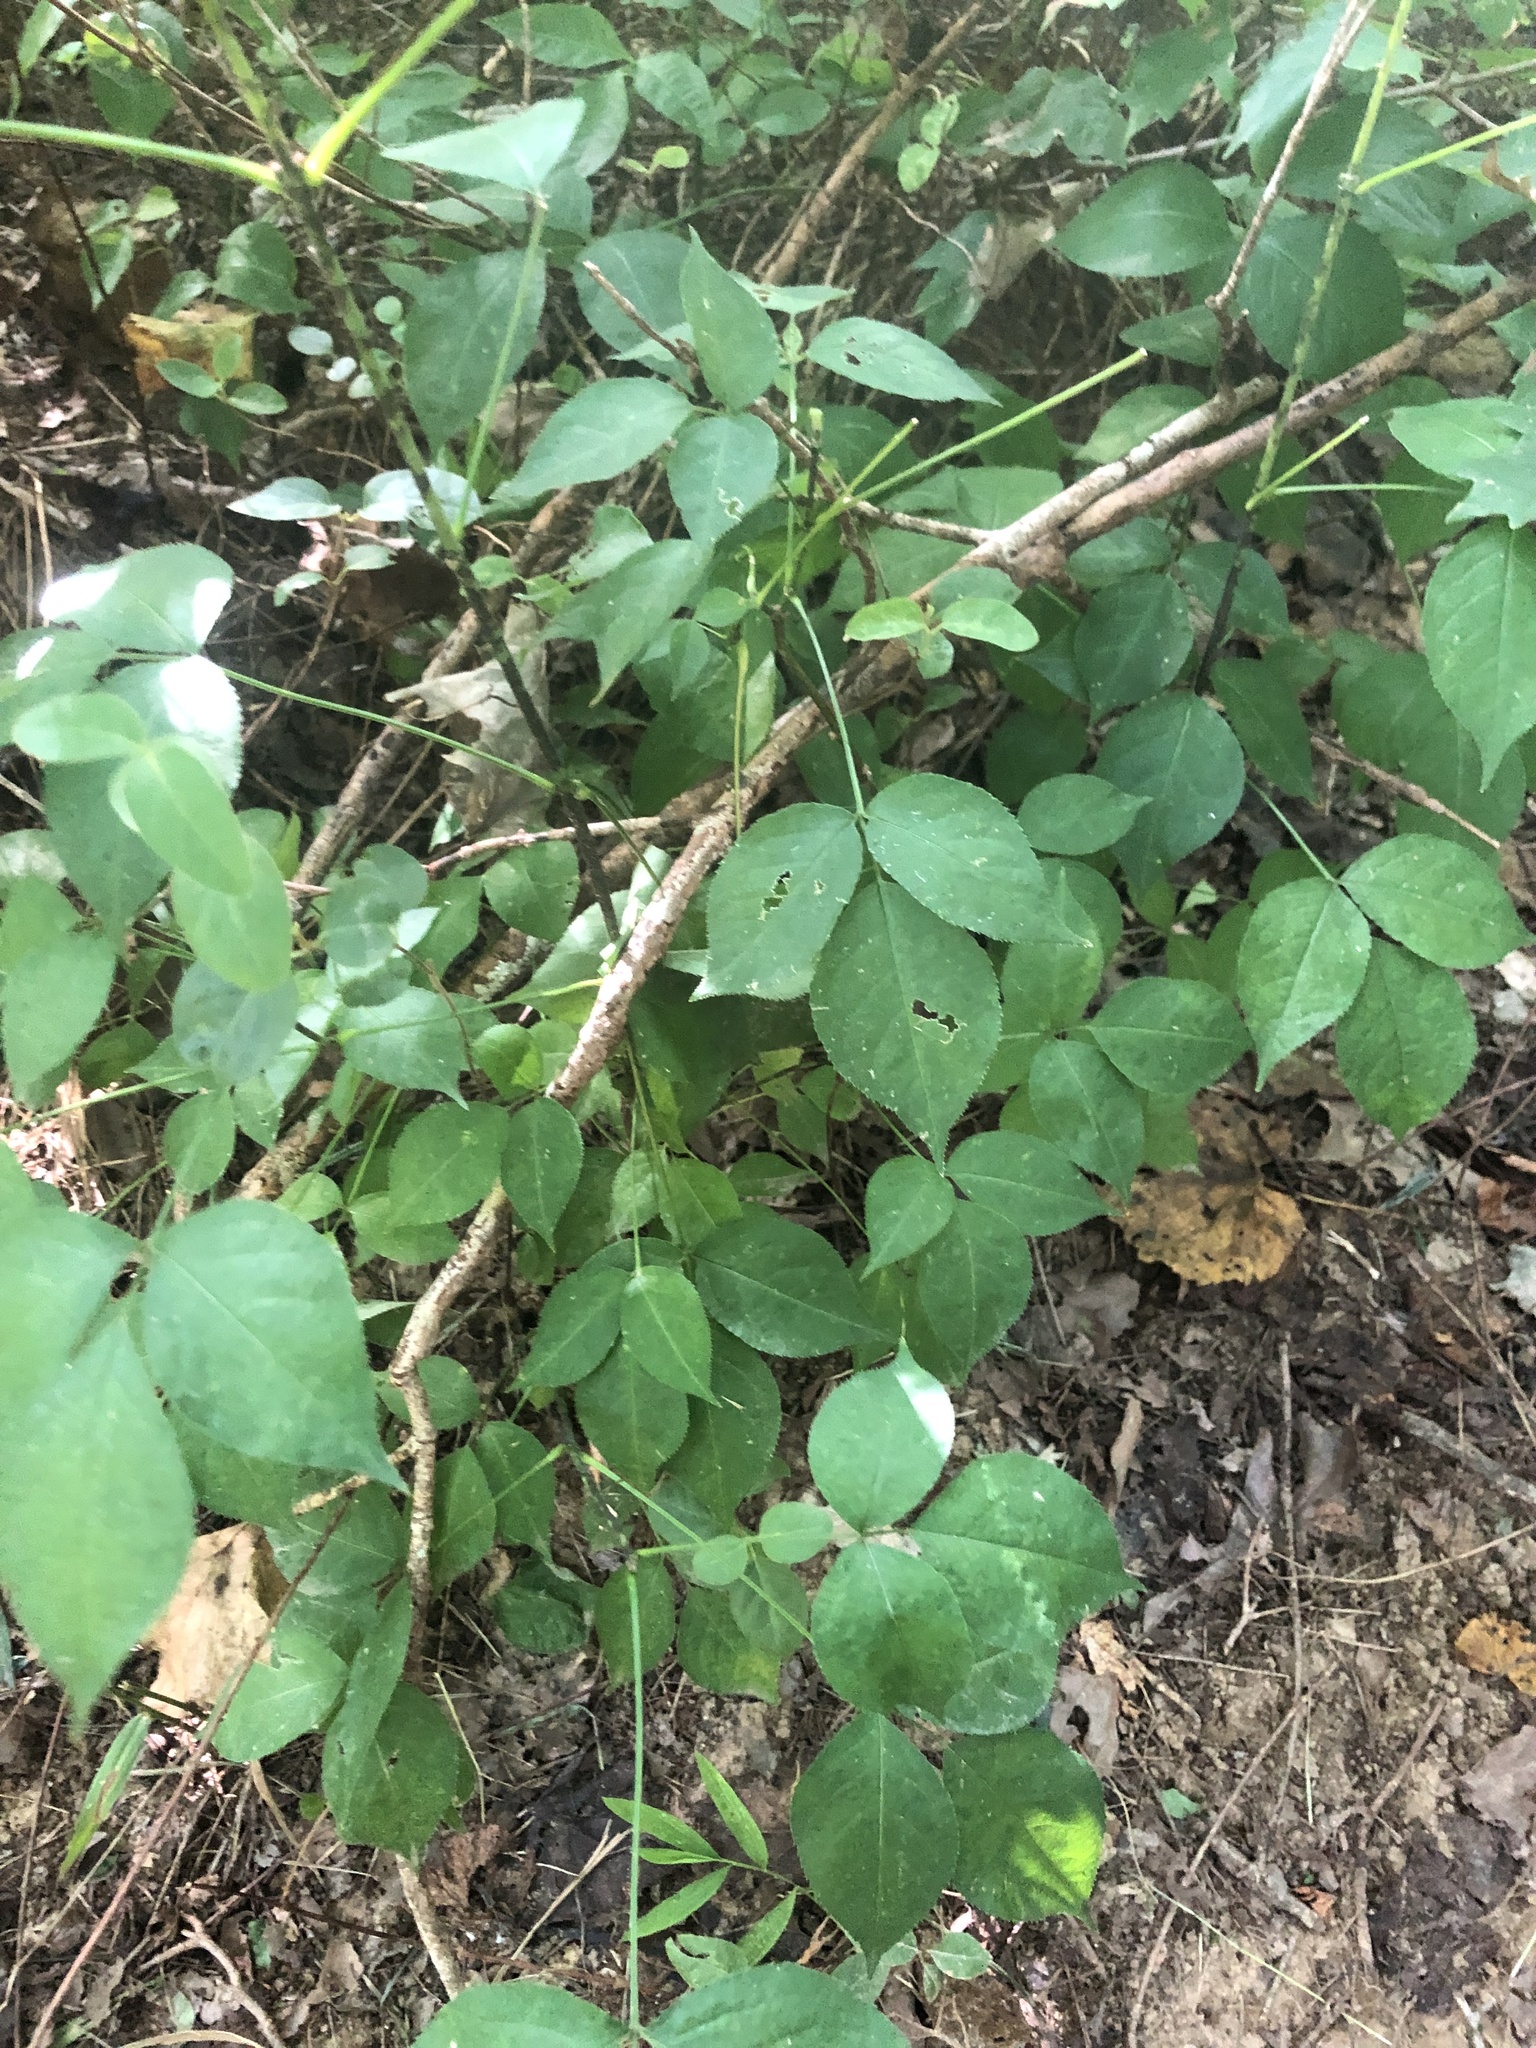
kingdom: Plantae
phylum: Tracheophyta
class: Magnoliopsida
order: Crossosomatales
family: Staphyleaceae
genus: Staphylea
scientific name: Staphylea trifolia
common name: American bladdernut
